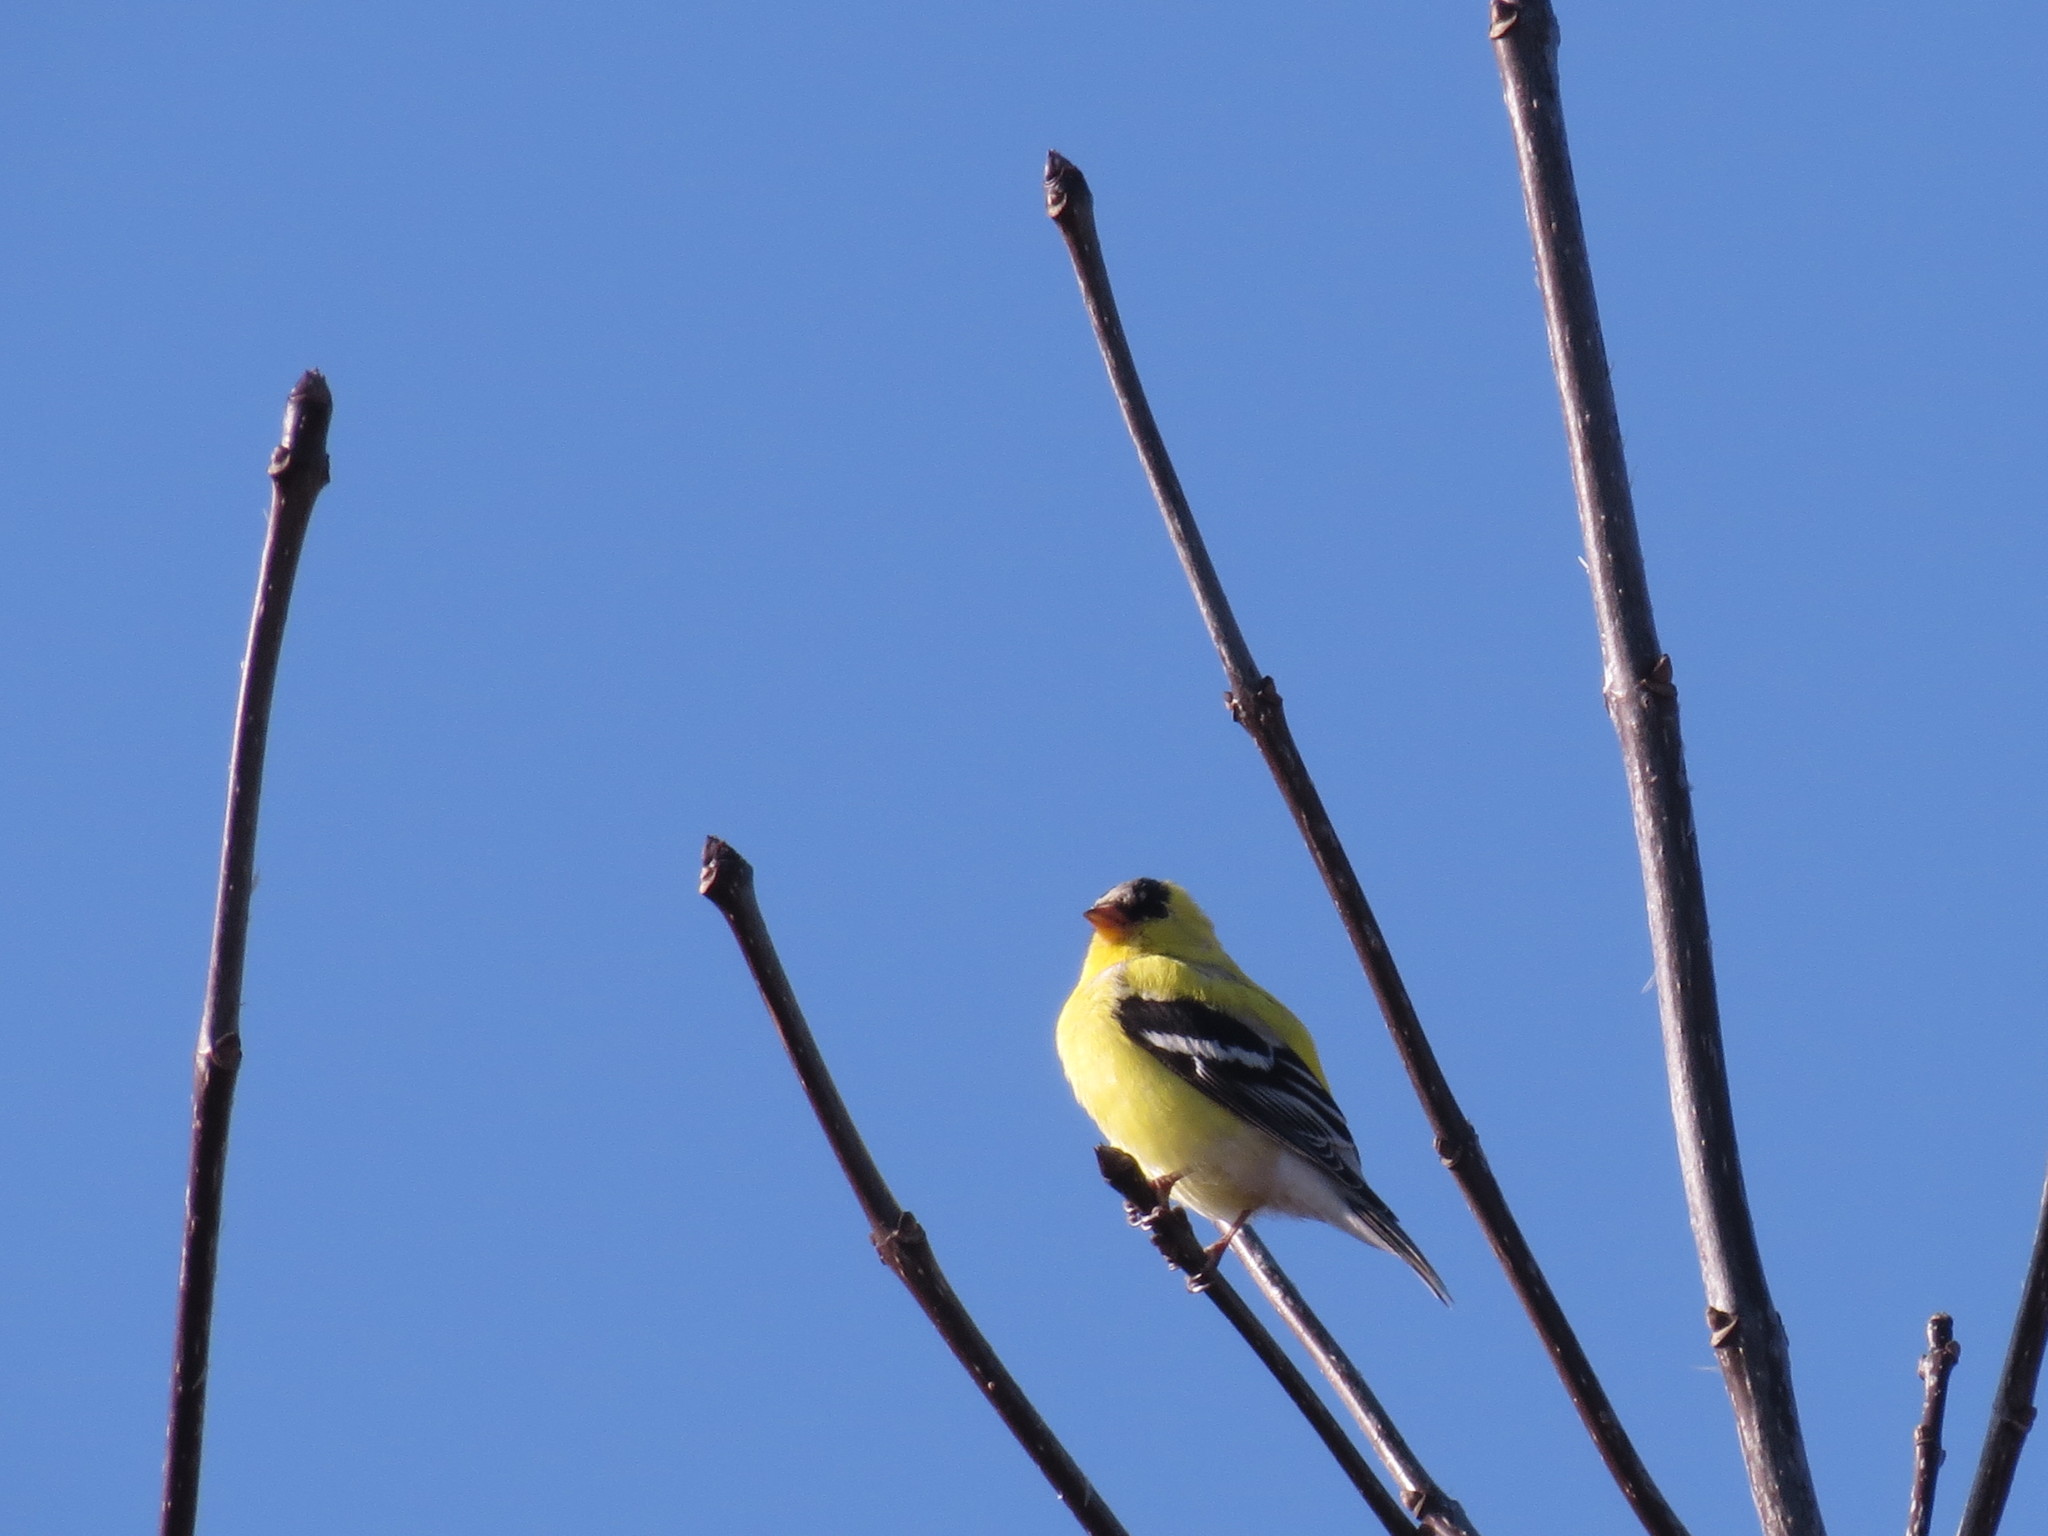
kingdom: Animalia
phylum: Chordata
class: Aves
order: Passeriformes
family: Fringillidae
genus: Spinus
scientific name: Spinus tristis
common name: American goldfinch
